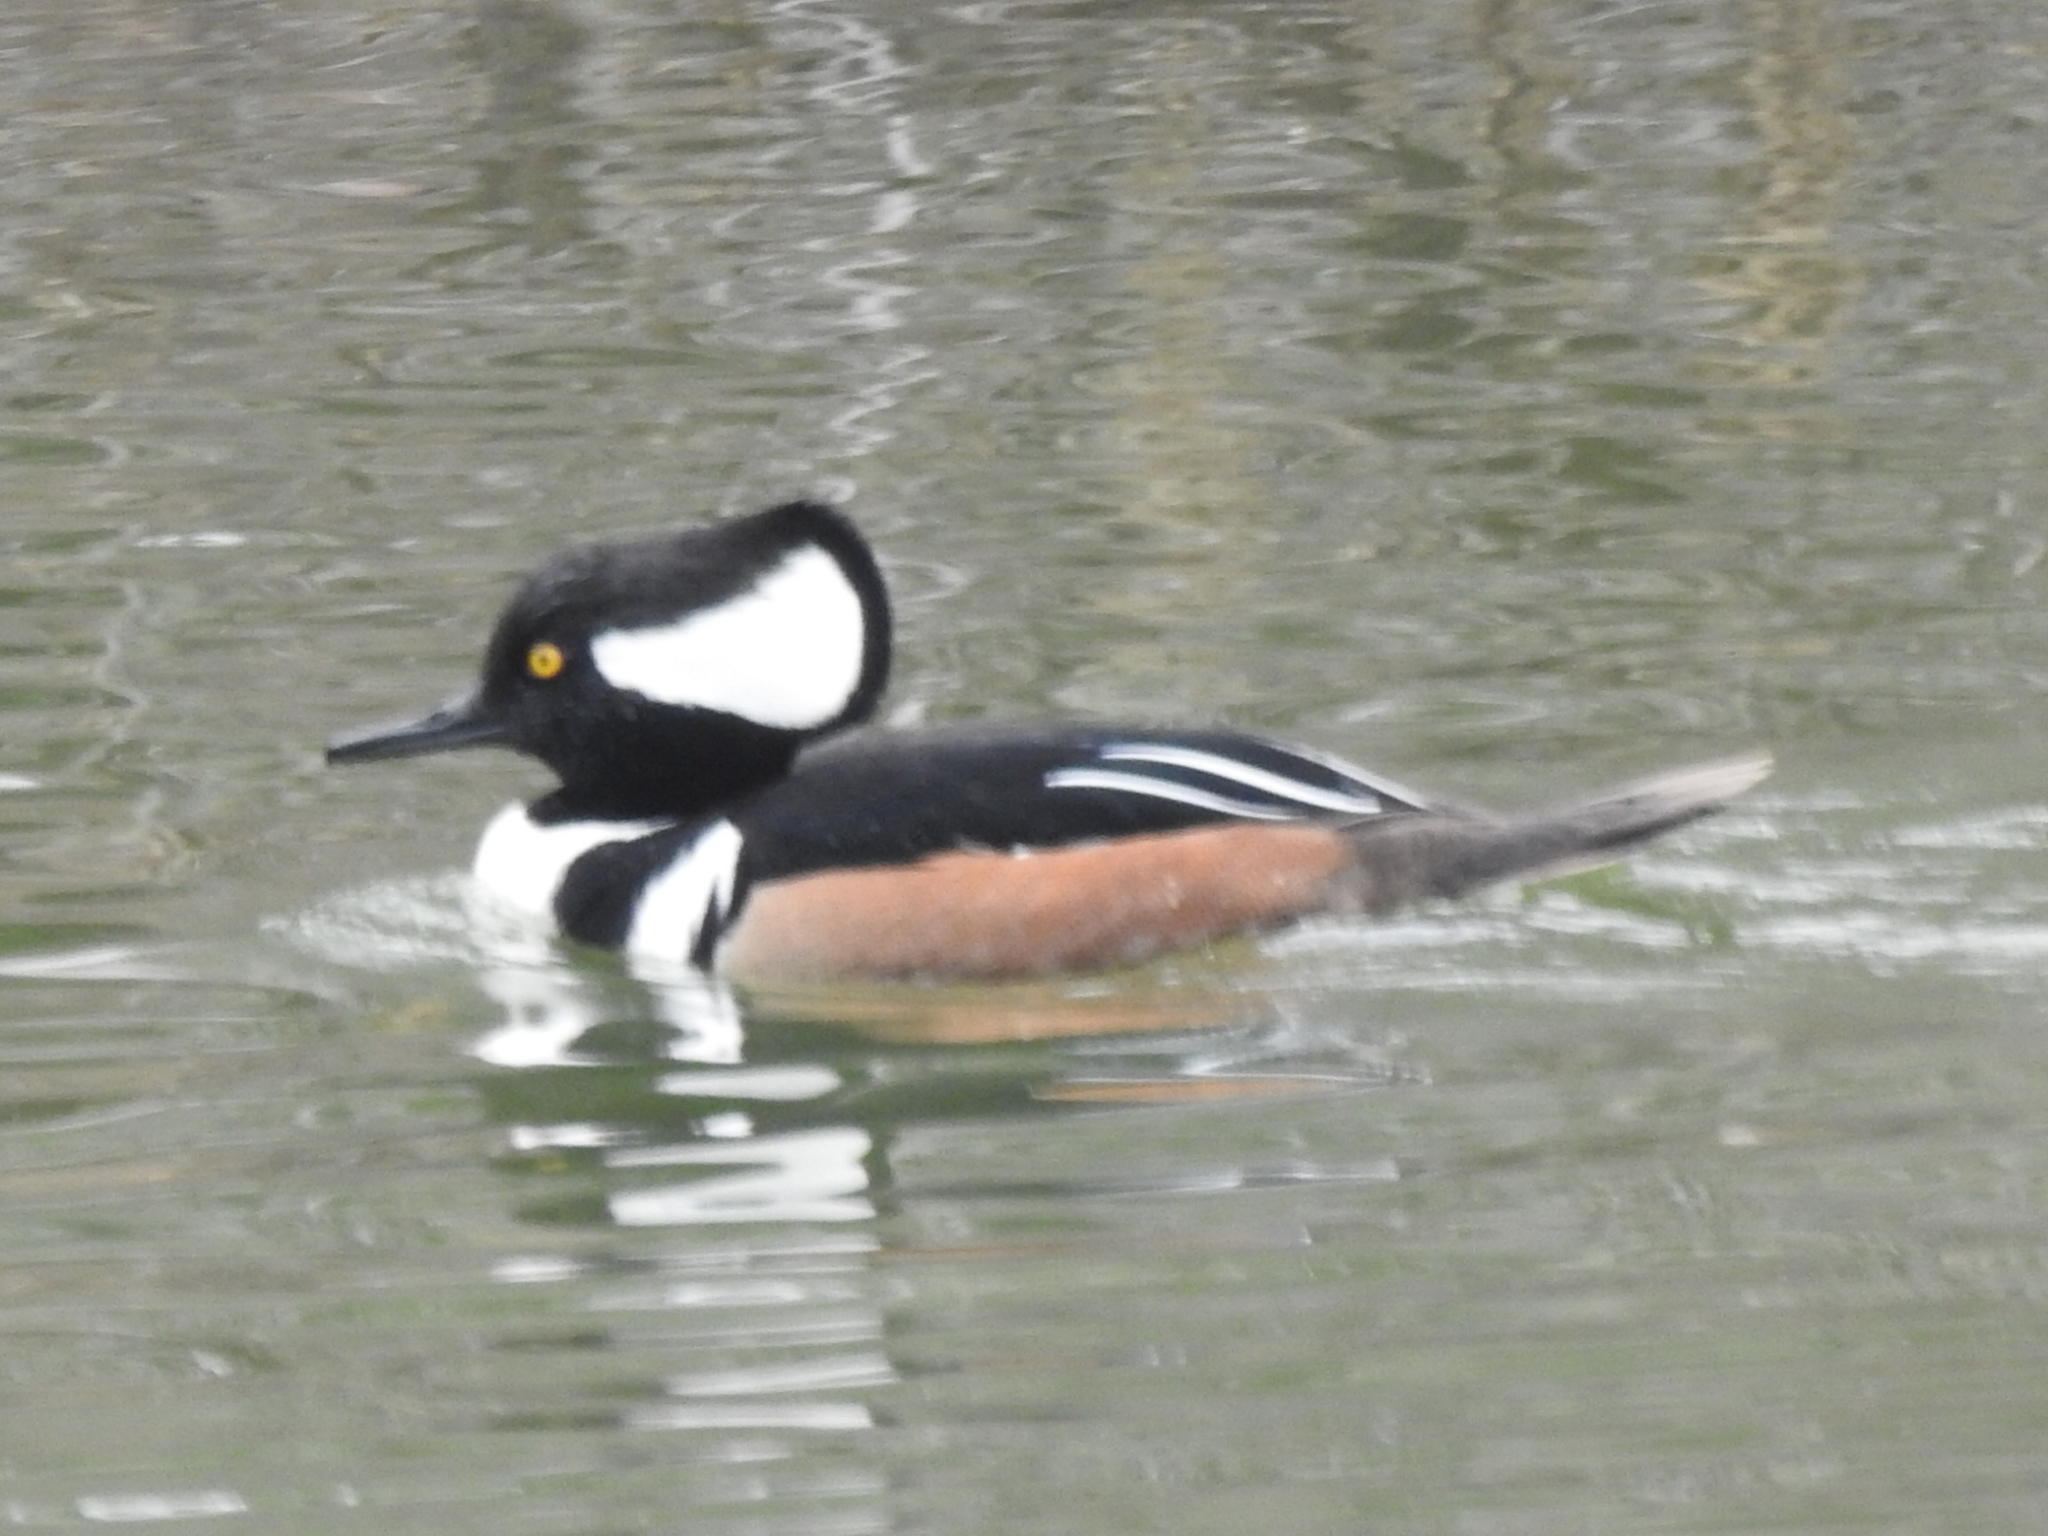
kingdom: Animalia
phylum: Chordata
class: Aves
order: Anseriformes
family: Anatidae
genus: Lophodytes
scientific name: Lophodytes cucullatus
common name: Hooded merganser
